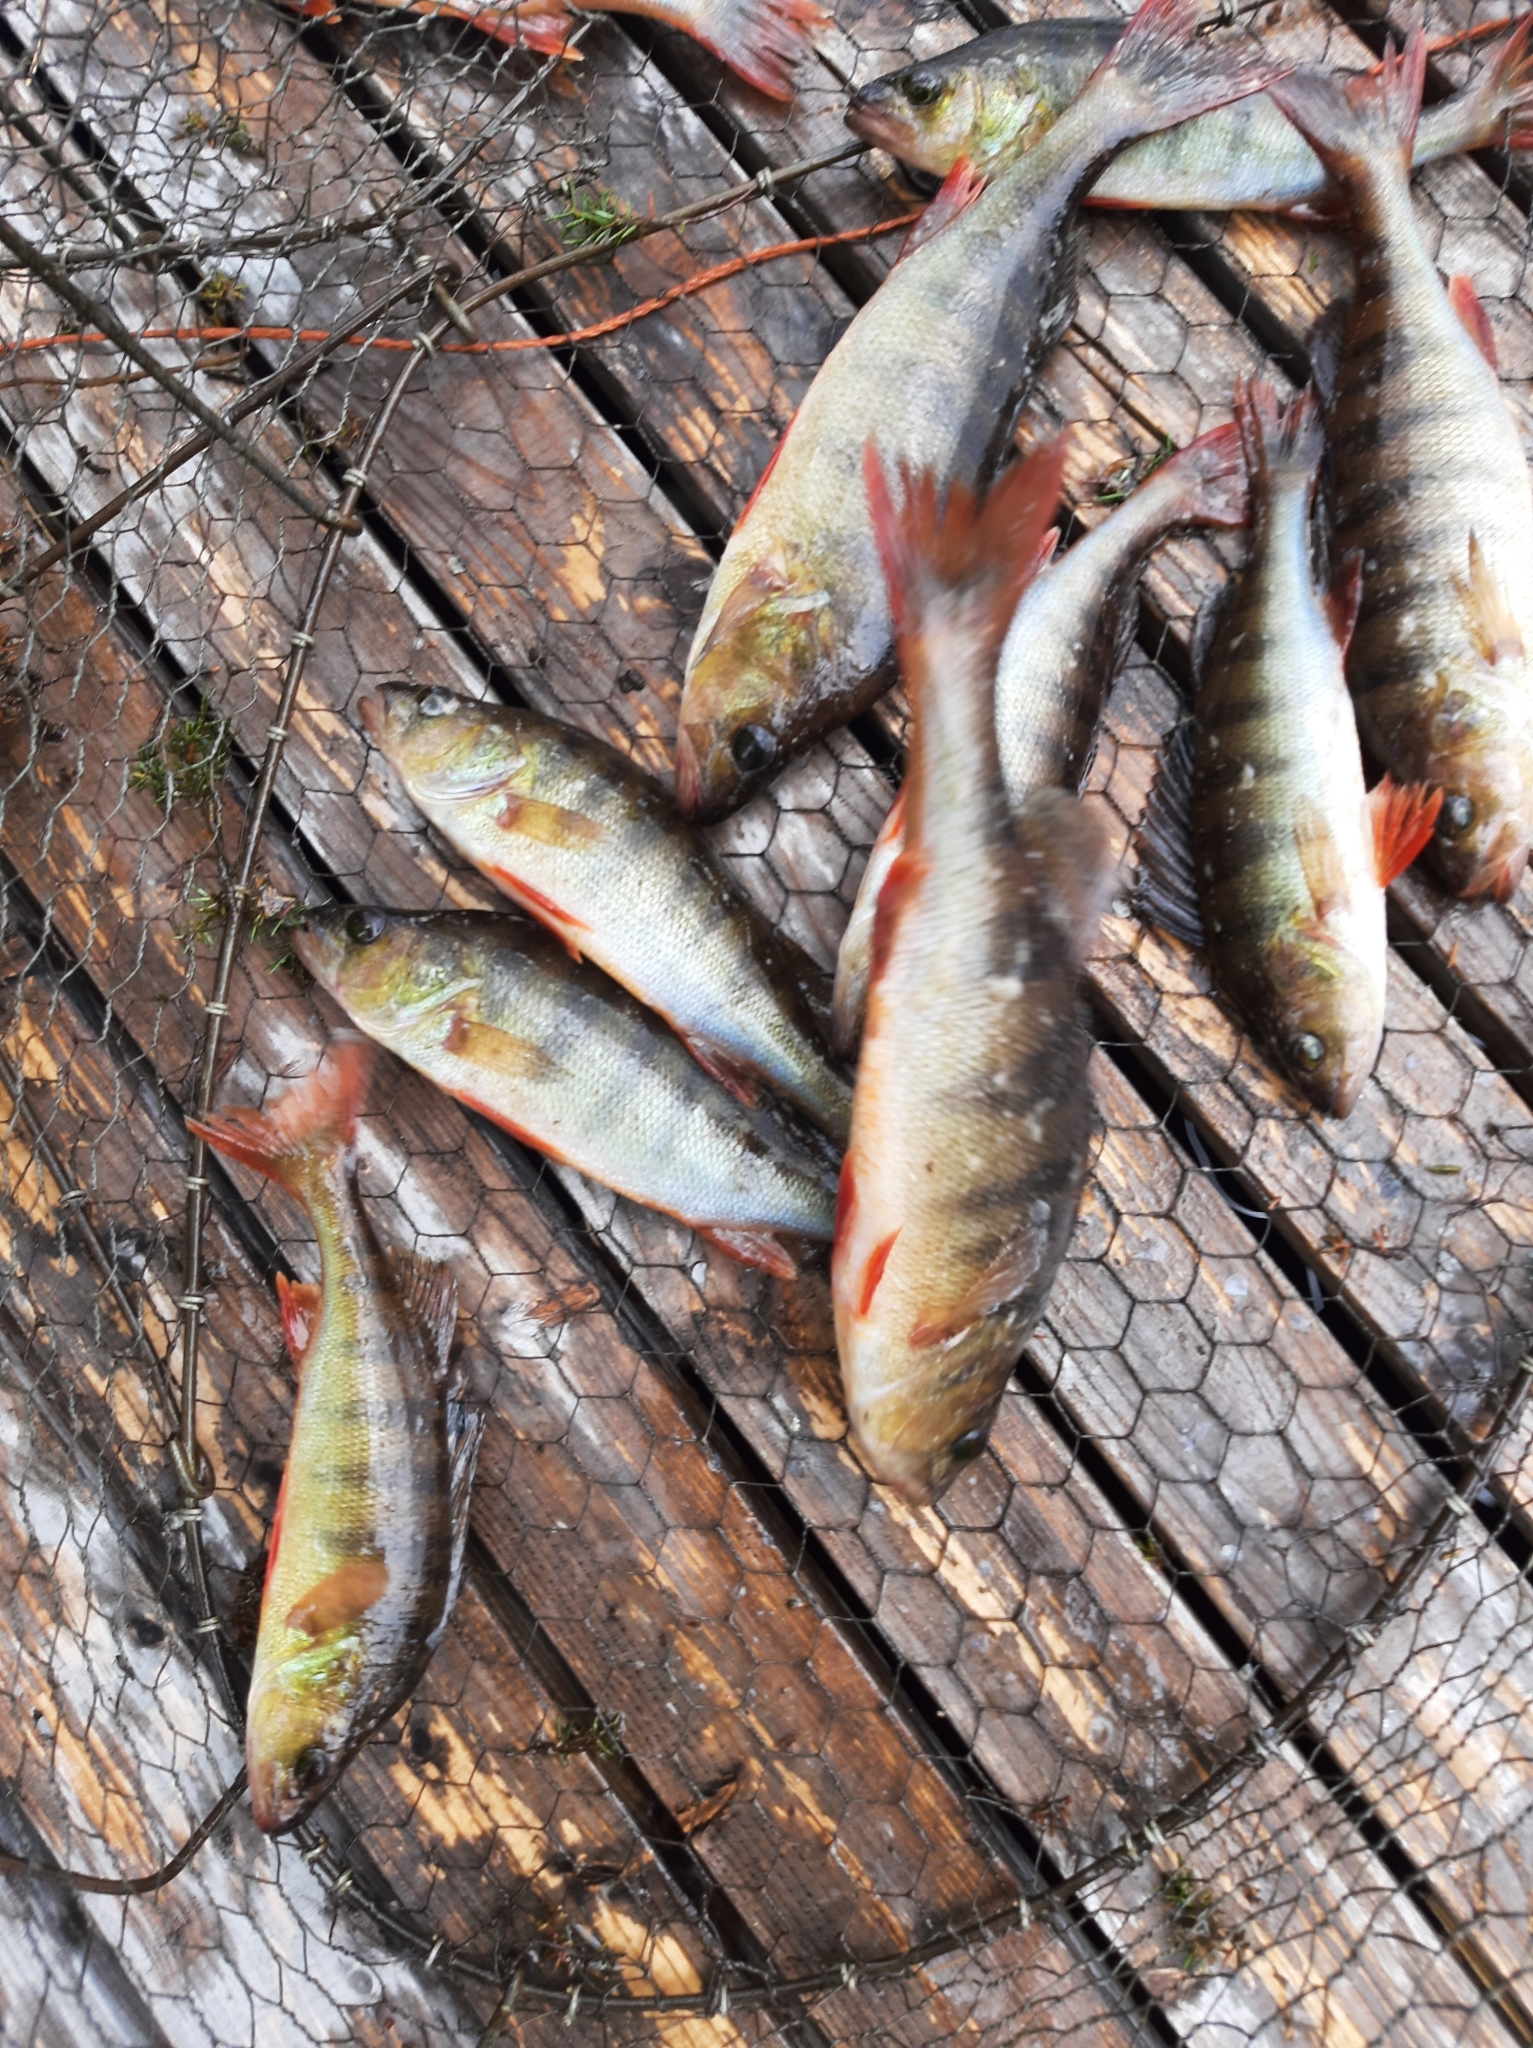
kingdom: Animalia
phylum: Chordata
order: Perciformes
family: Percidae
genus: Perca
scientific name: Perca fluviatilis
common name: Perch
